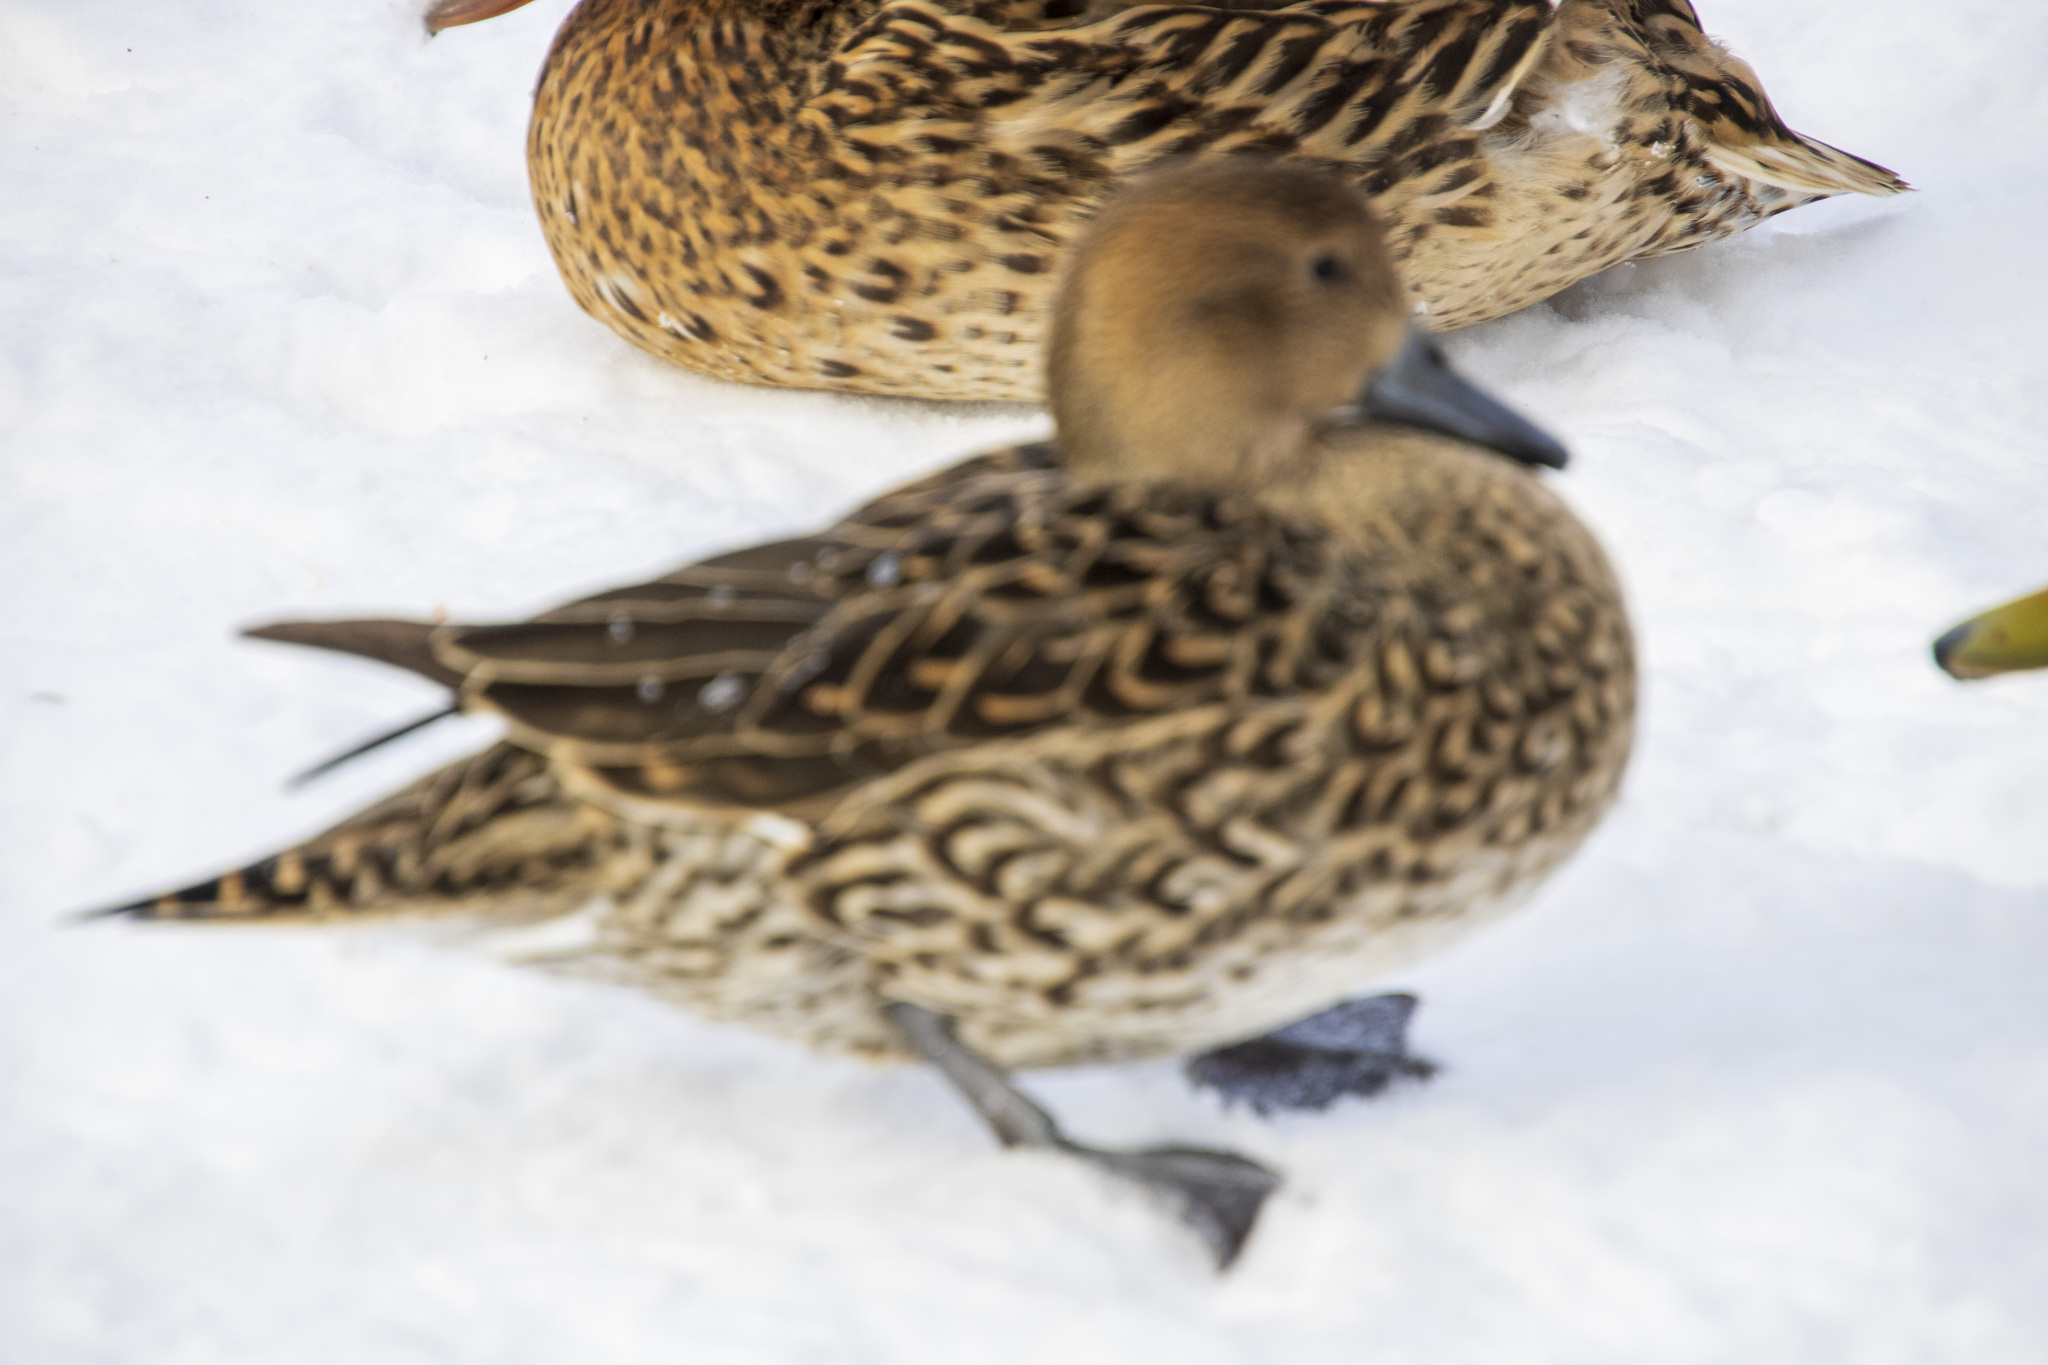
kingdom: Animalia
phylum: Chordata
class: Aves
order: Anseriformes
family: Anatidae
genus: Anas
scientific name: Anas acuta
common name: Northern pintail
